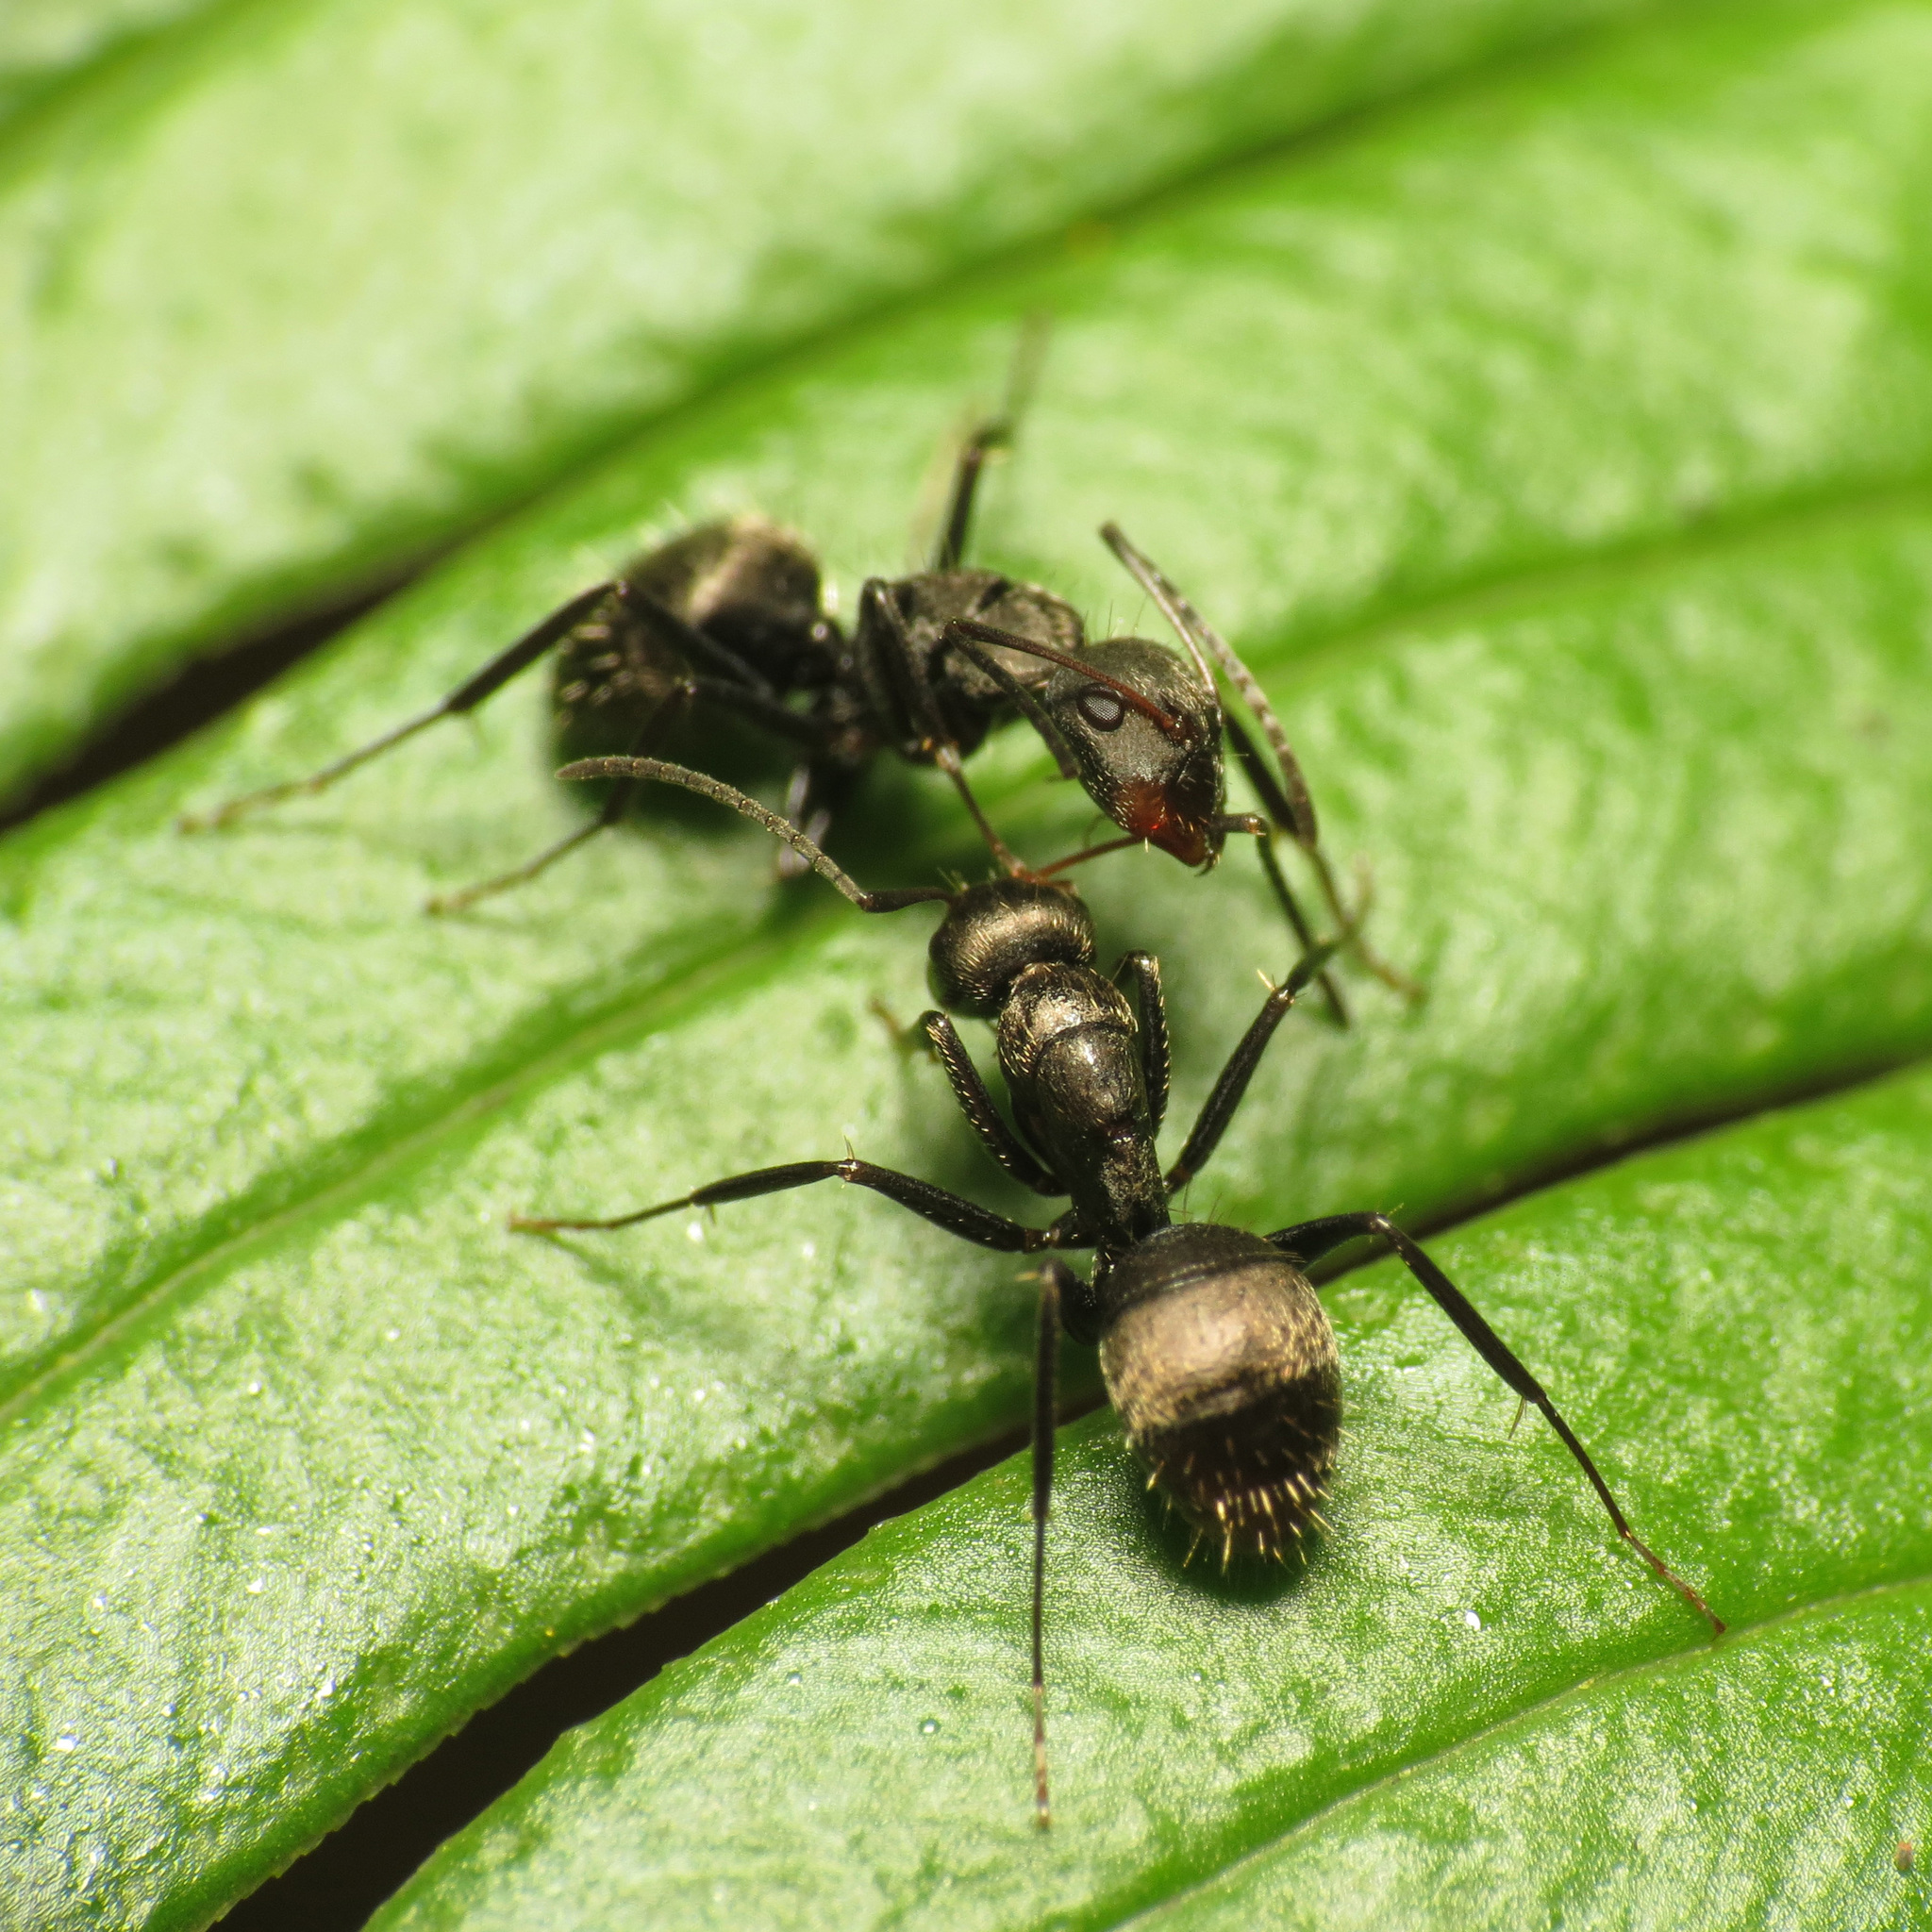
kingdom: Animalia
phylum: Arthropoda
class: Insecta
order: Hymenoptera
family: Formicidae
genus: Camponotus
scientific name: Camponotus novogranadensis
